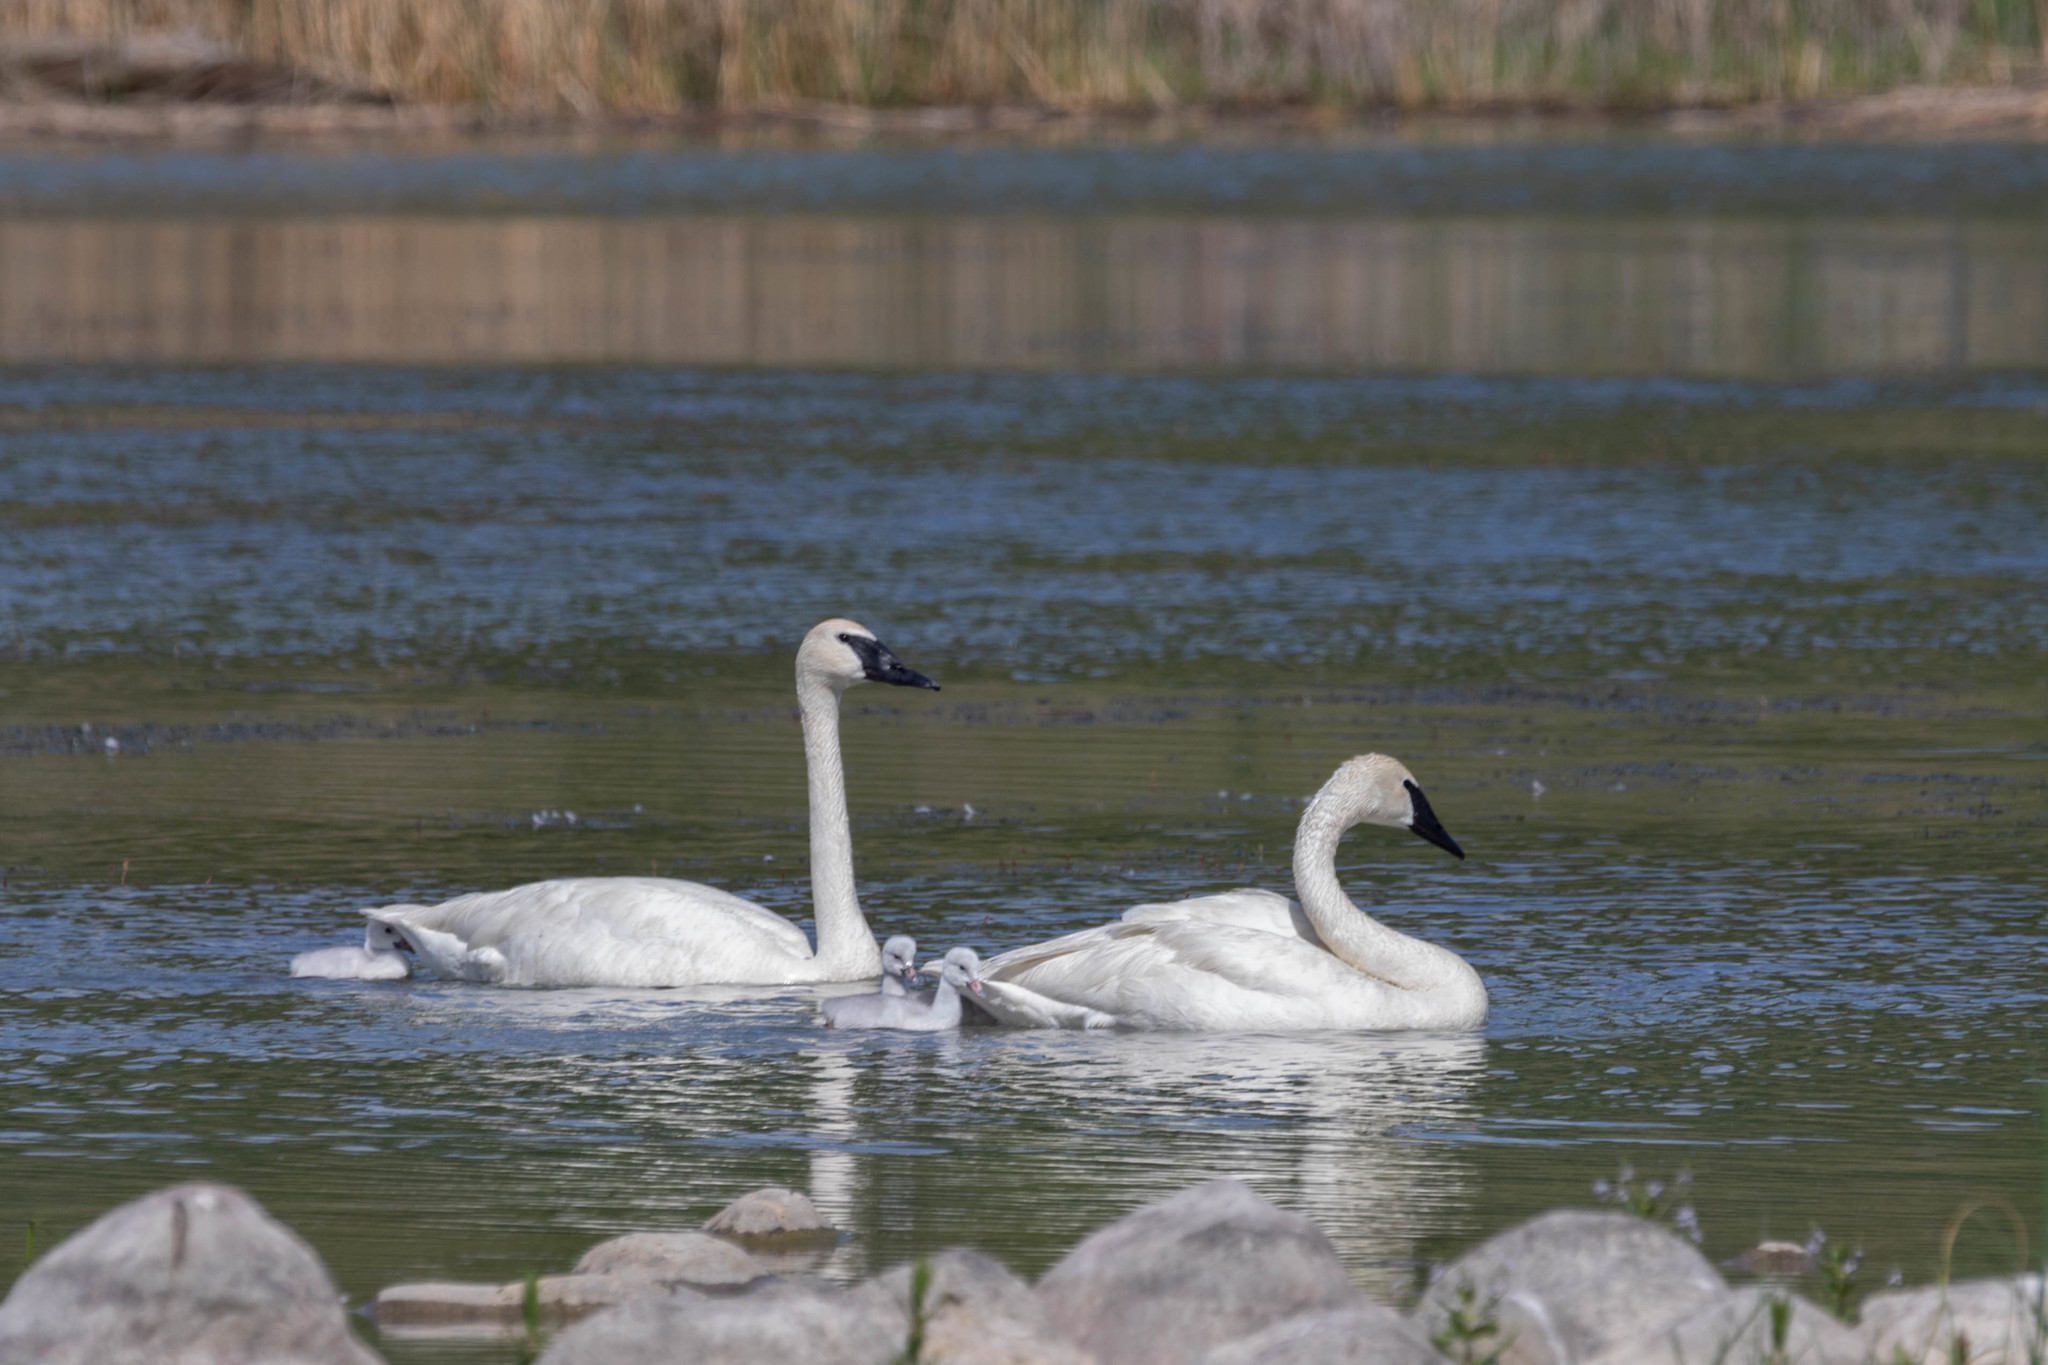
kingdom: Animalia
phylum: Chordata
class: Aves
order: Anseriformes
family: Anatidae
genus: Cygnus
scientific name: Cygnus buccinator
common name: Trumpeter swan
